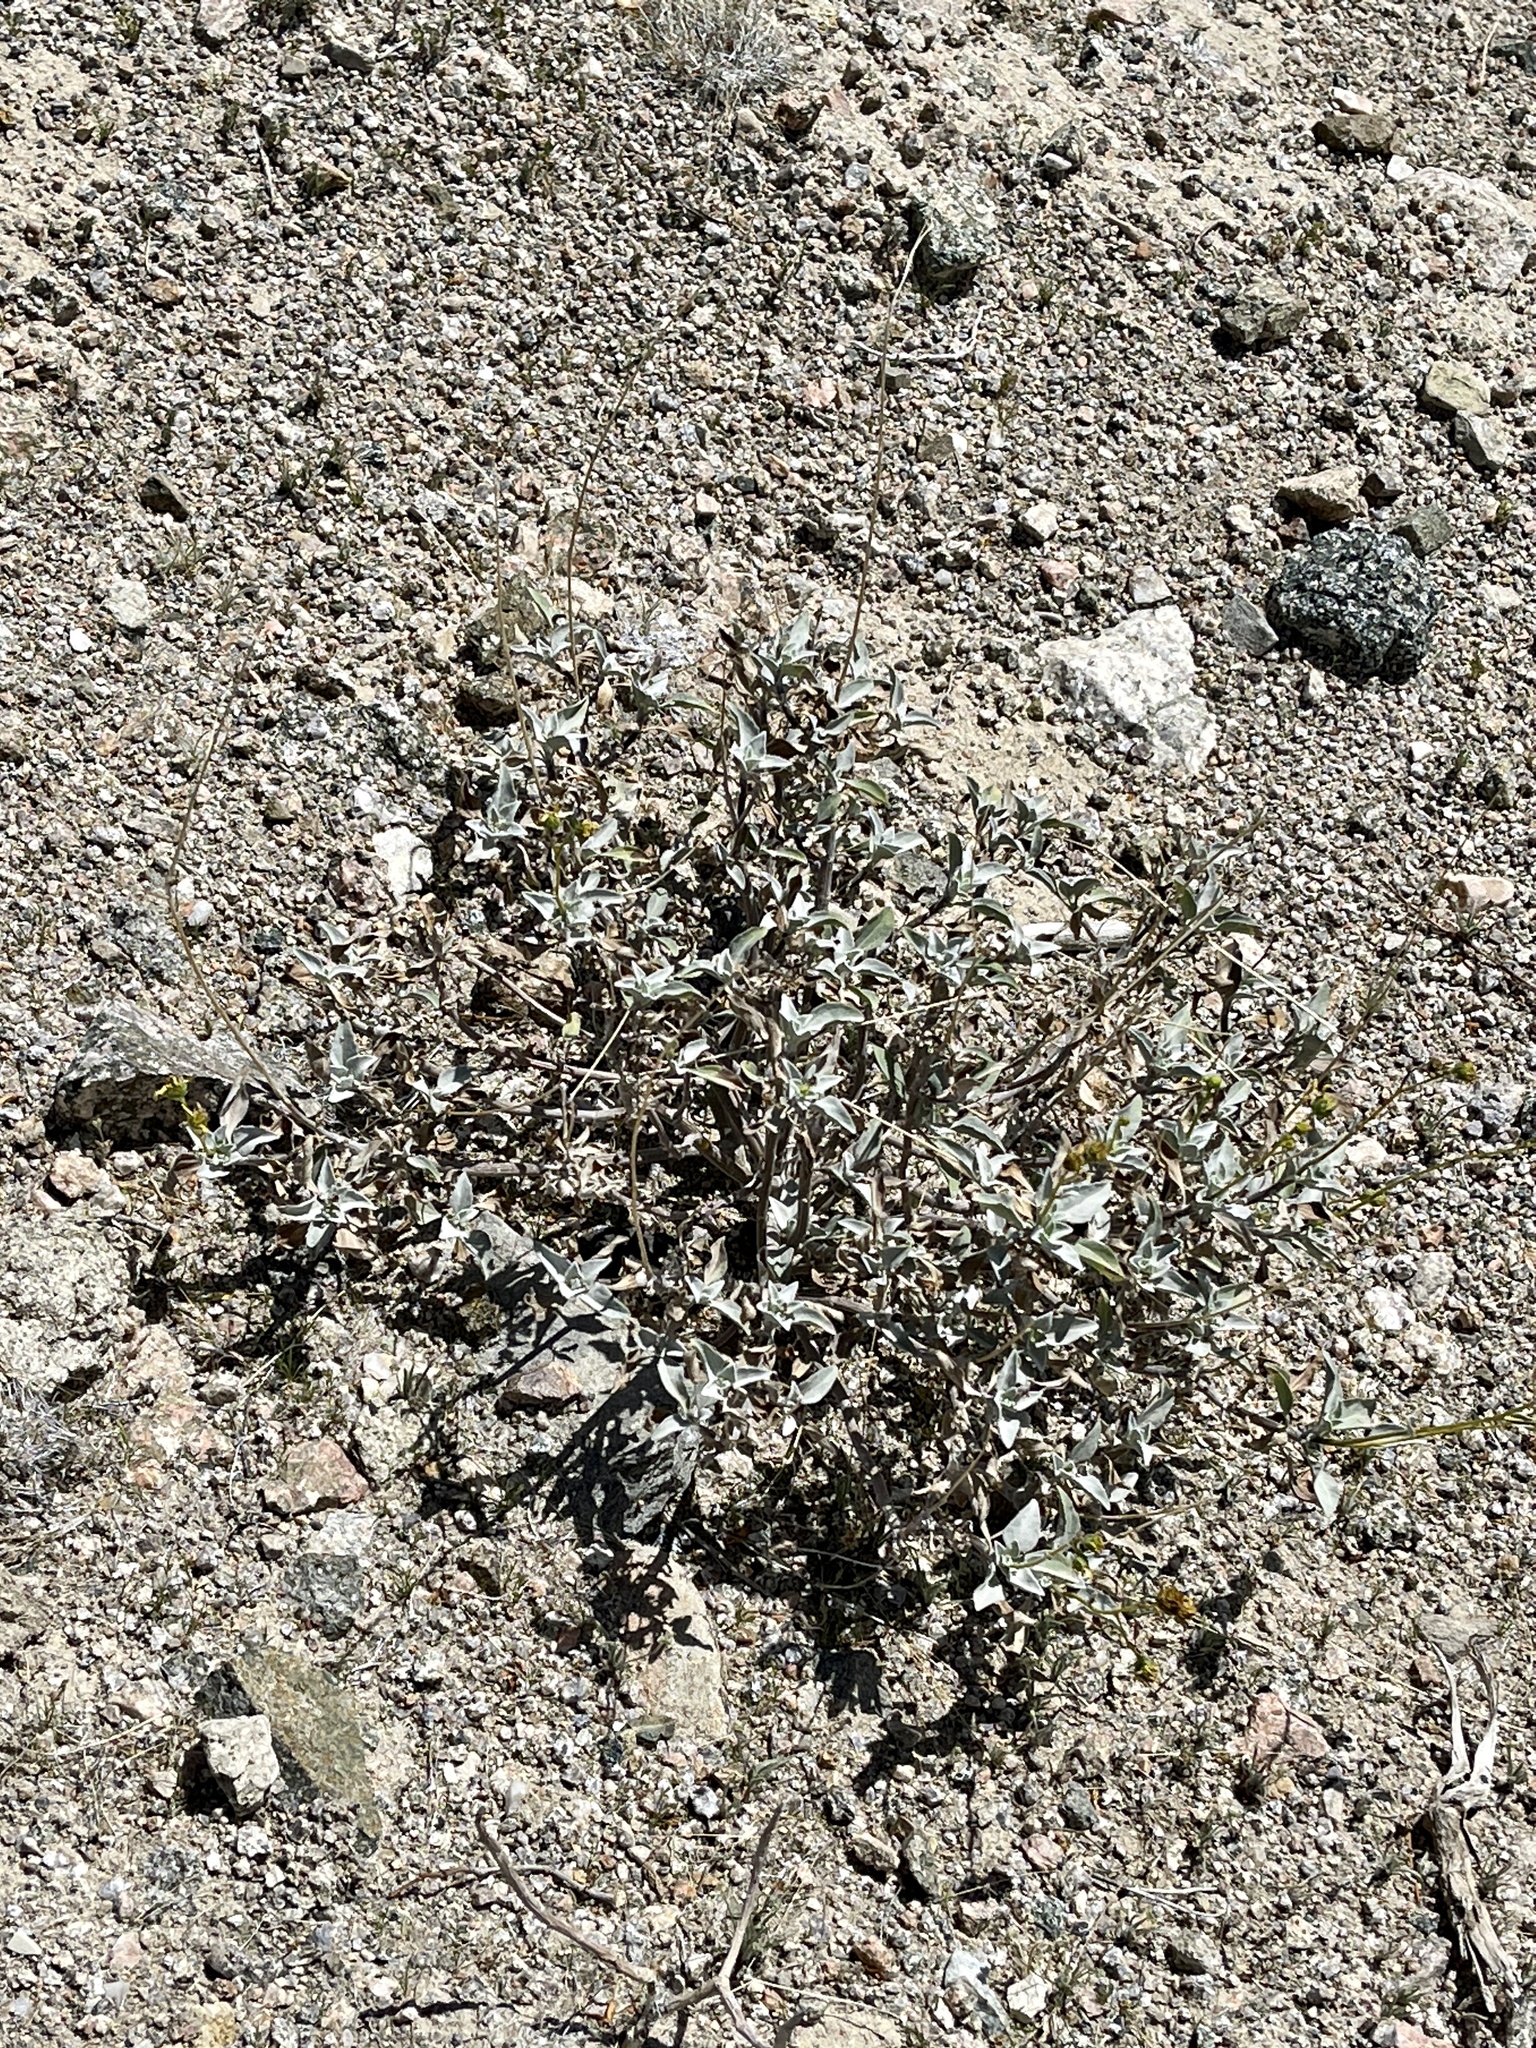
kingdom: Plantae
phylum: Tracheophyta
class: Magnoliopsida
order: Asterales
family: Asteraceae
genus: Encelia
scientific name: Encelia farinosa
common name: Brittlebush
